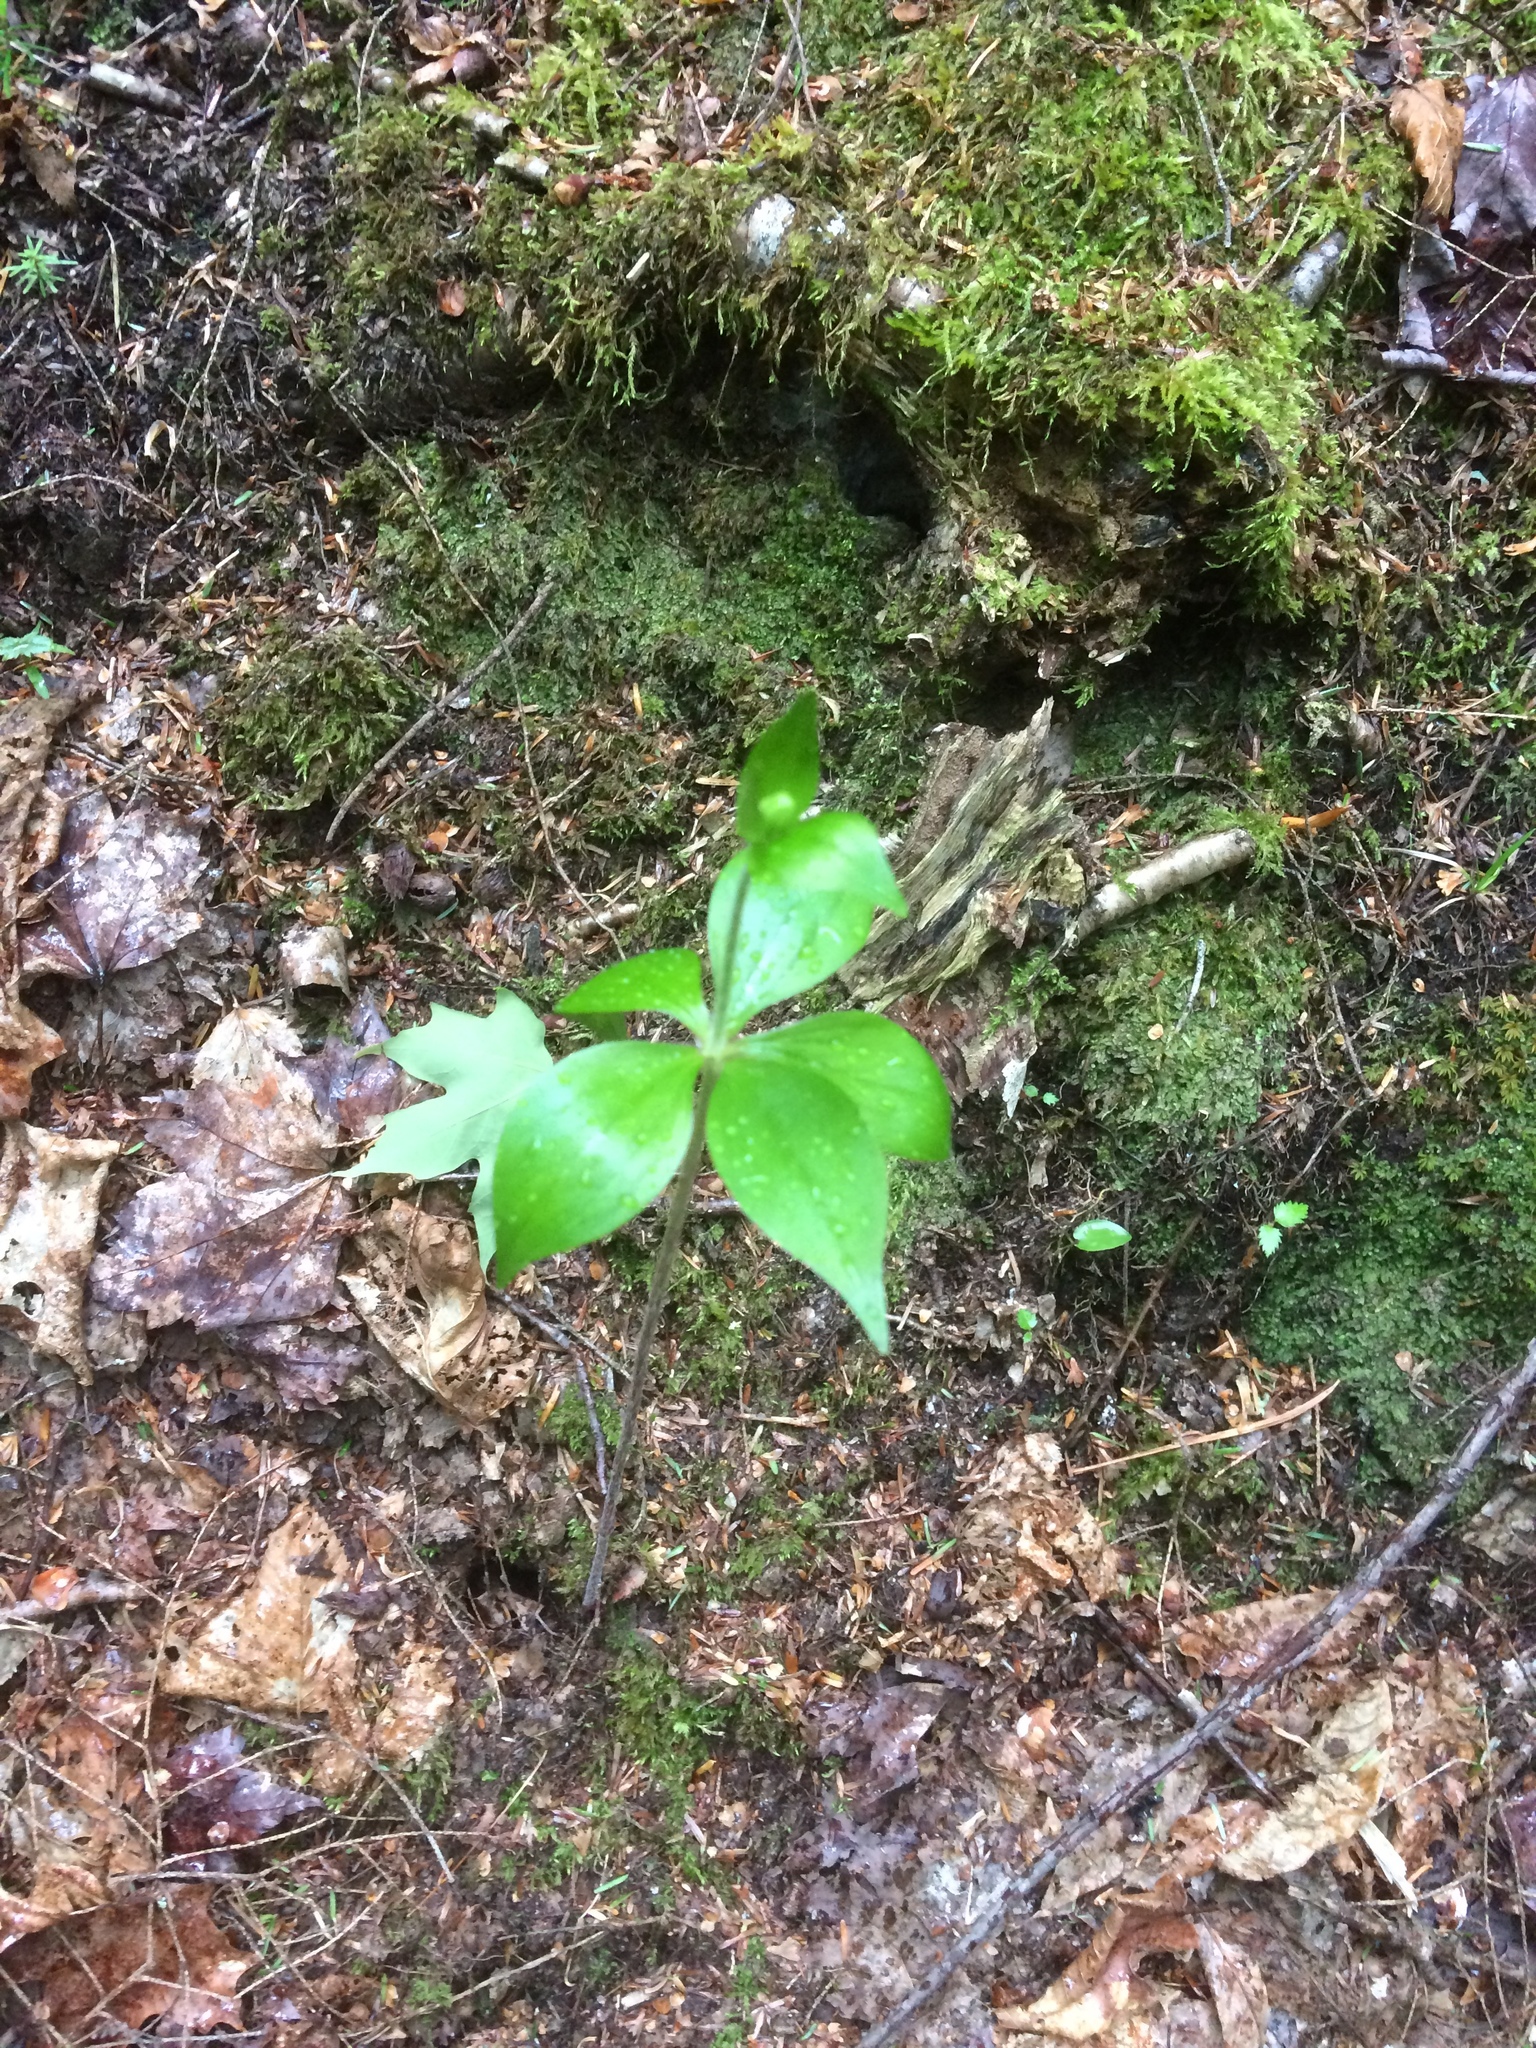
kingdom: Plantae
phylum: Tracheophyta
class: Liliopsida
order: Liliales
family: Liliaceae
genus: Medeola
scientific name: Medeola virginiana
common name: Indian cucumber-root
